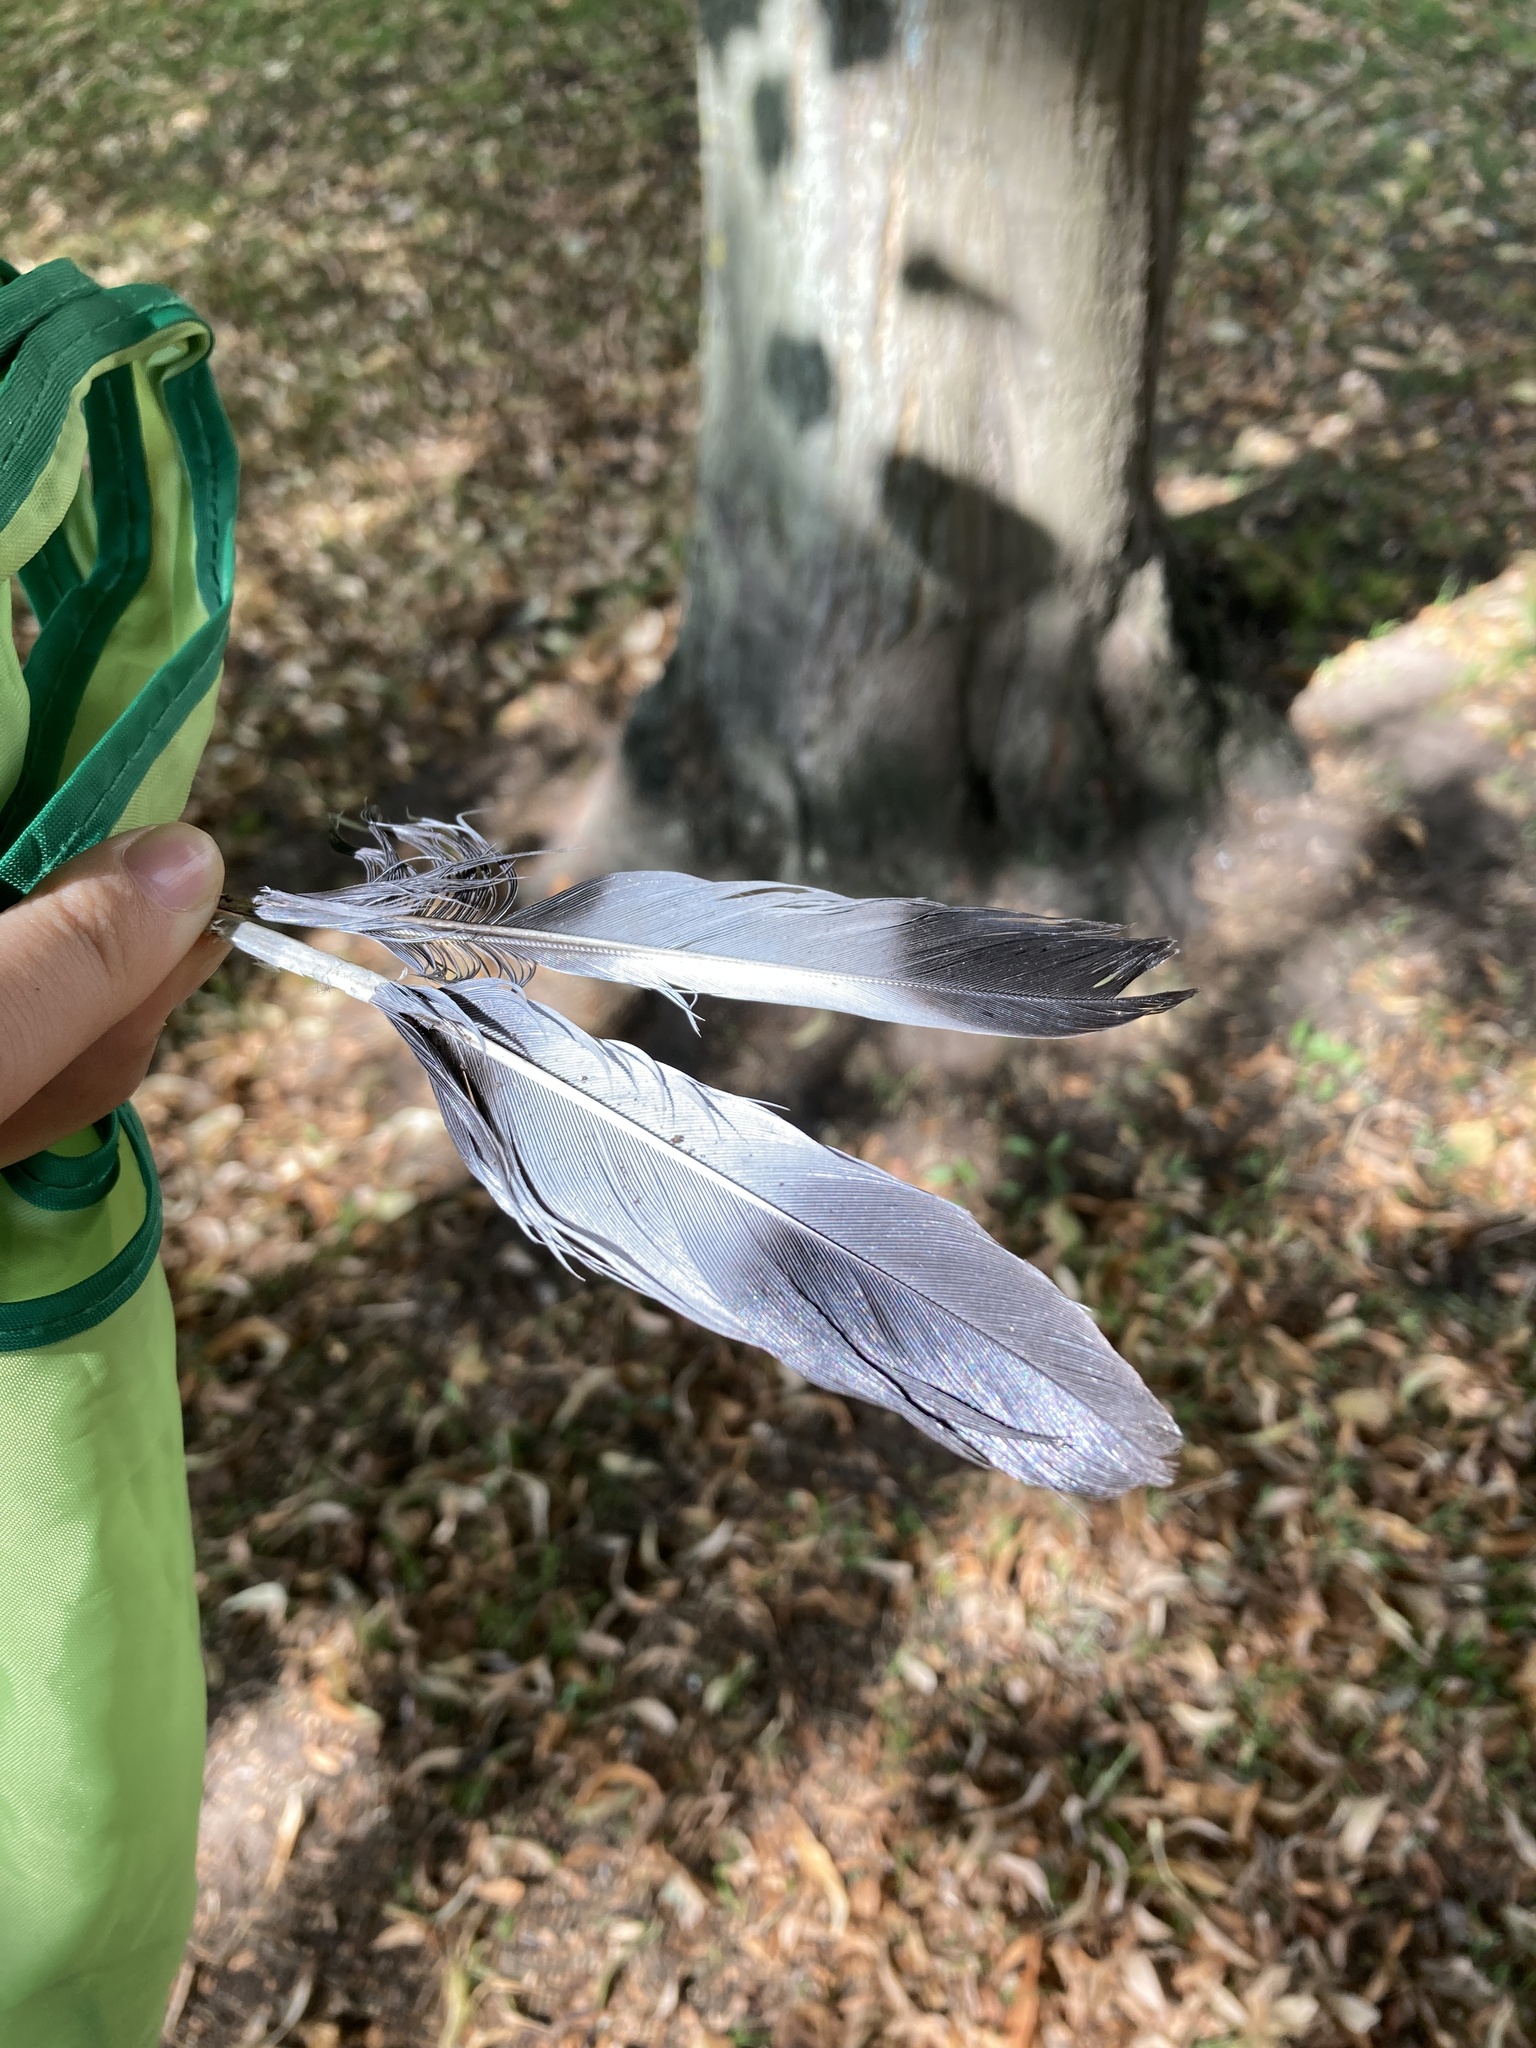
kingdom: Animalia
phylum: Chordata
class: Aves
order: Columbiformes
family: Columbidae
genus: Columba
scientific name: Columba palumbus
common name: Common wood pigeon
